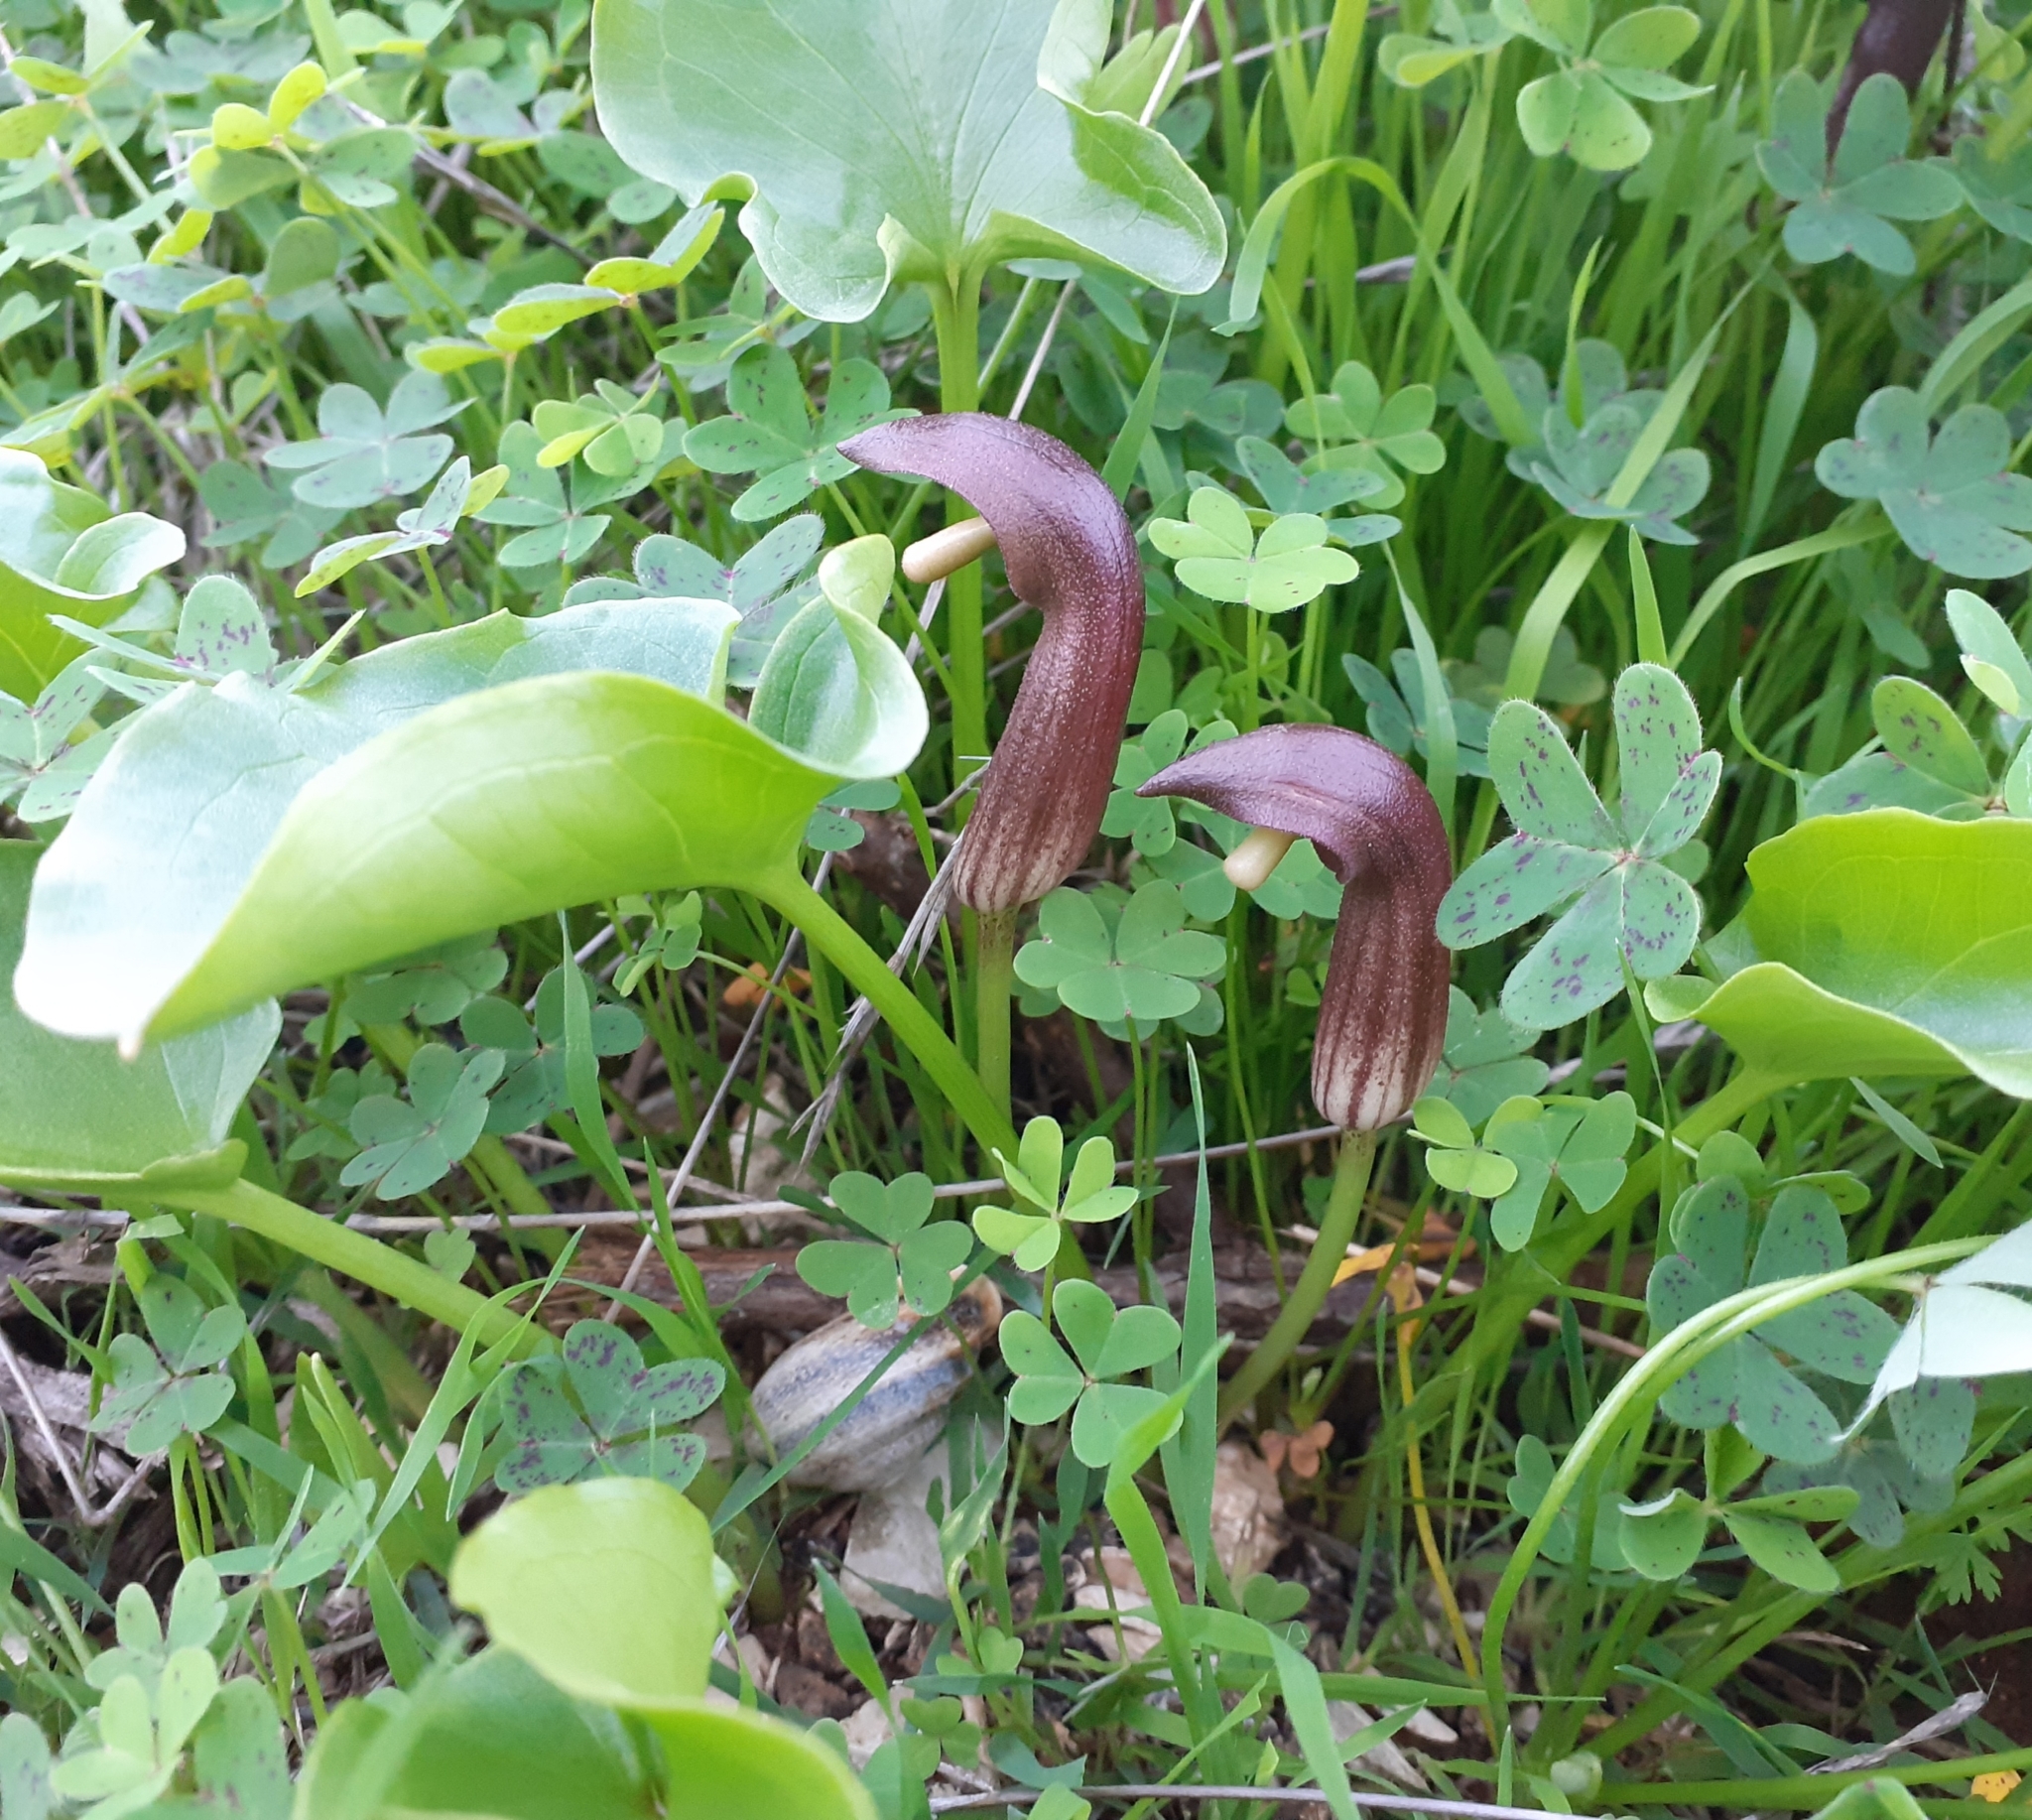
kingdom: Plantae
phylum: Tracheophyta
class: Liliopsida
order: Alismatales
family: Araceae
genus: Arisarum
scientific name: Arisarum simorrhinum
